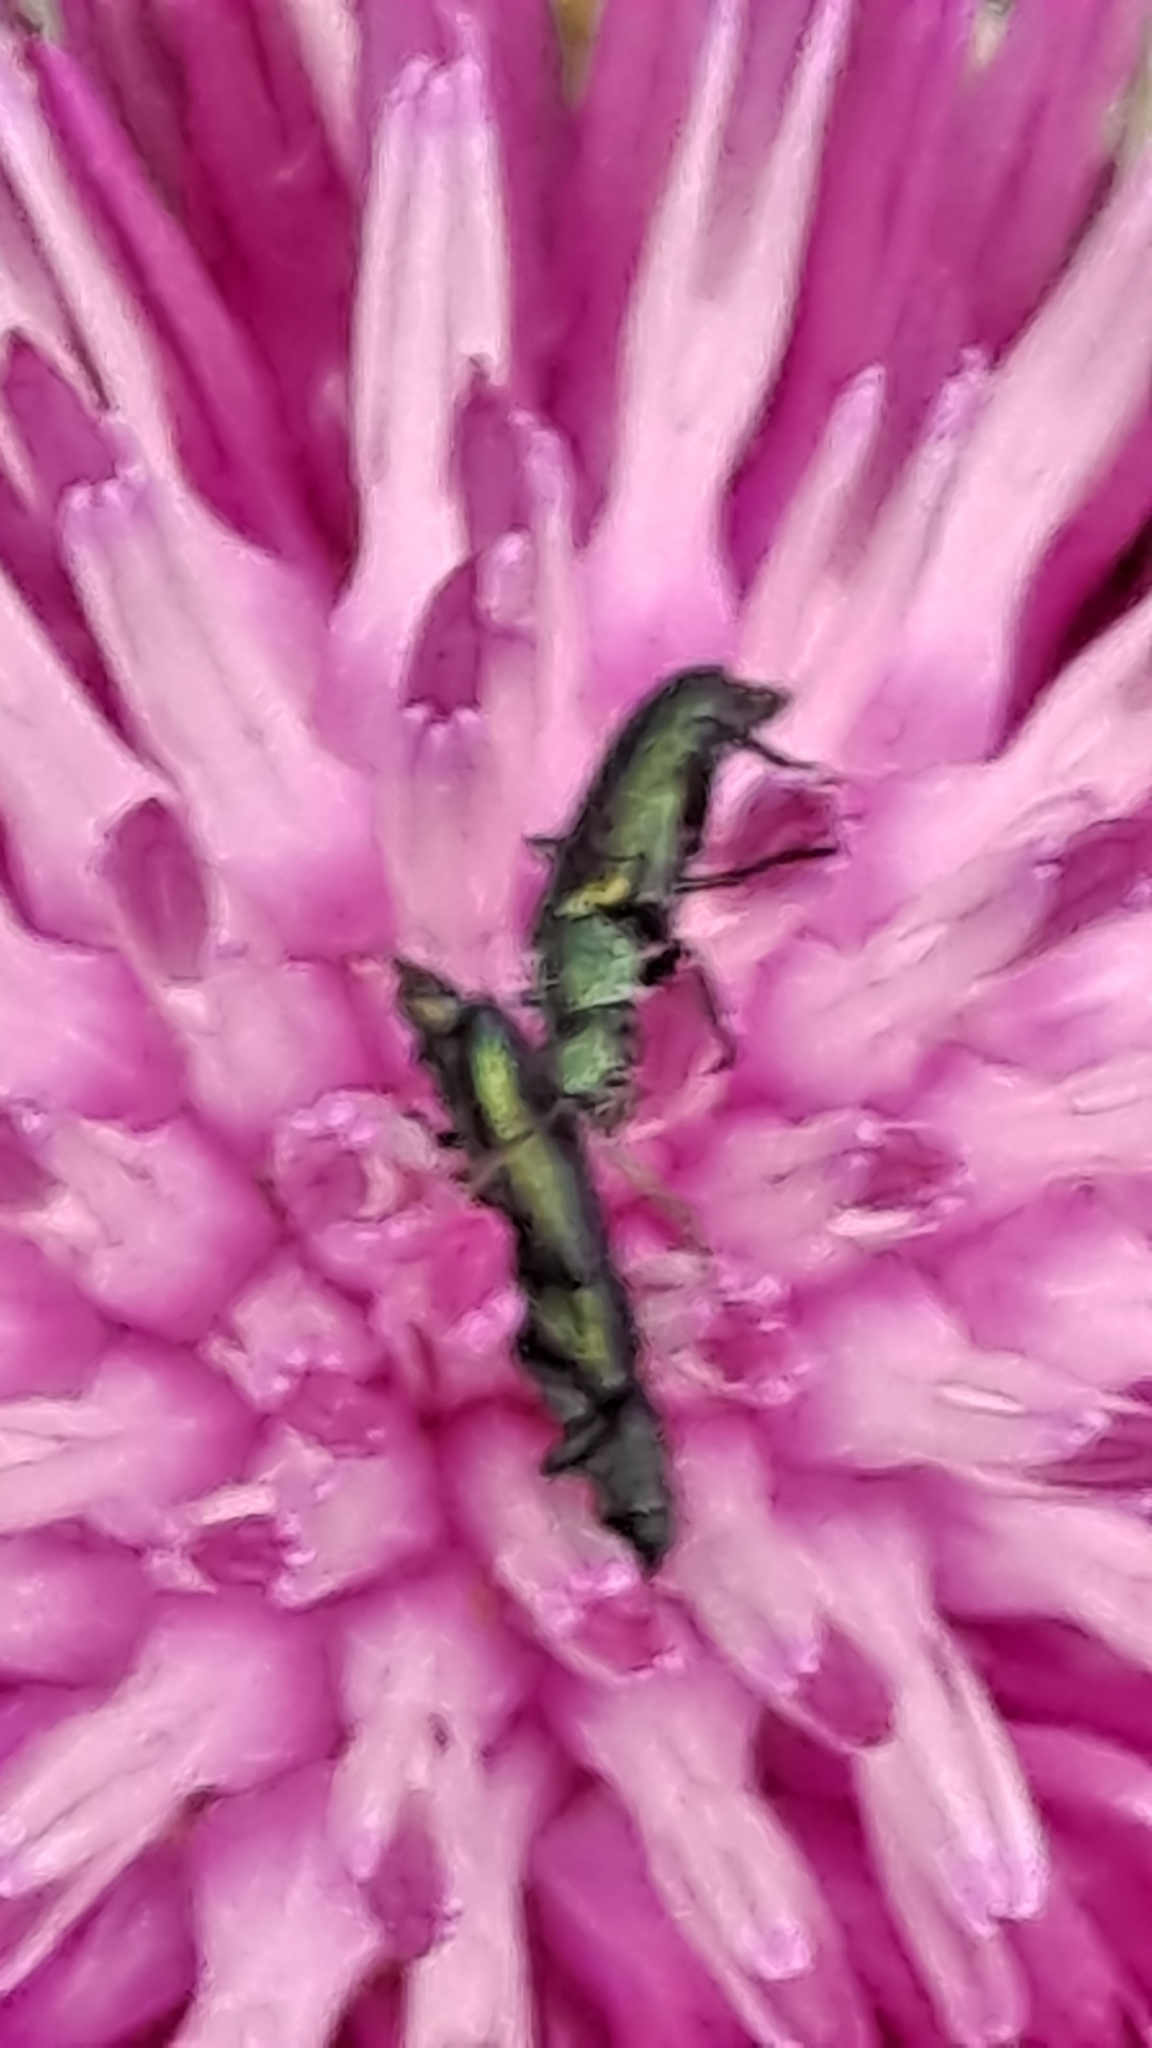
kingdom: Animalia
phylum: Arthropoda
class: Insecta
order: Coleoptera
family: Dasytidae
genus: Psilothrix
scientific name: Psilothrix viridicoerulea
